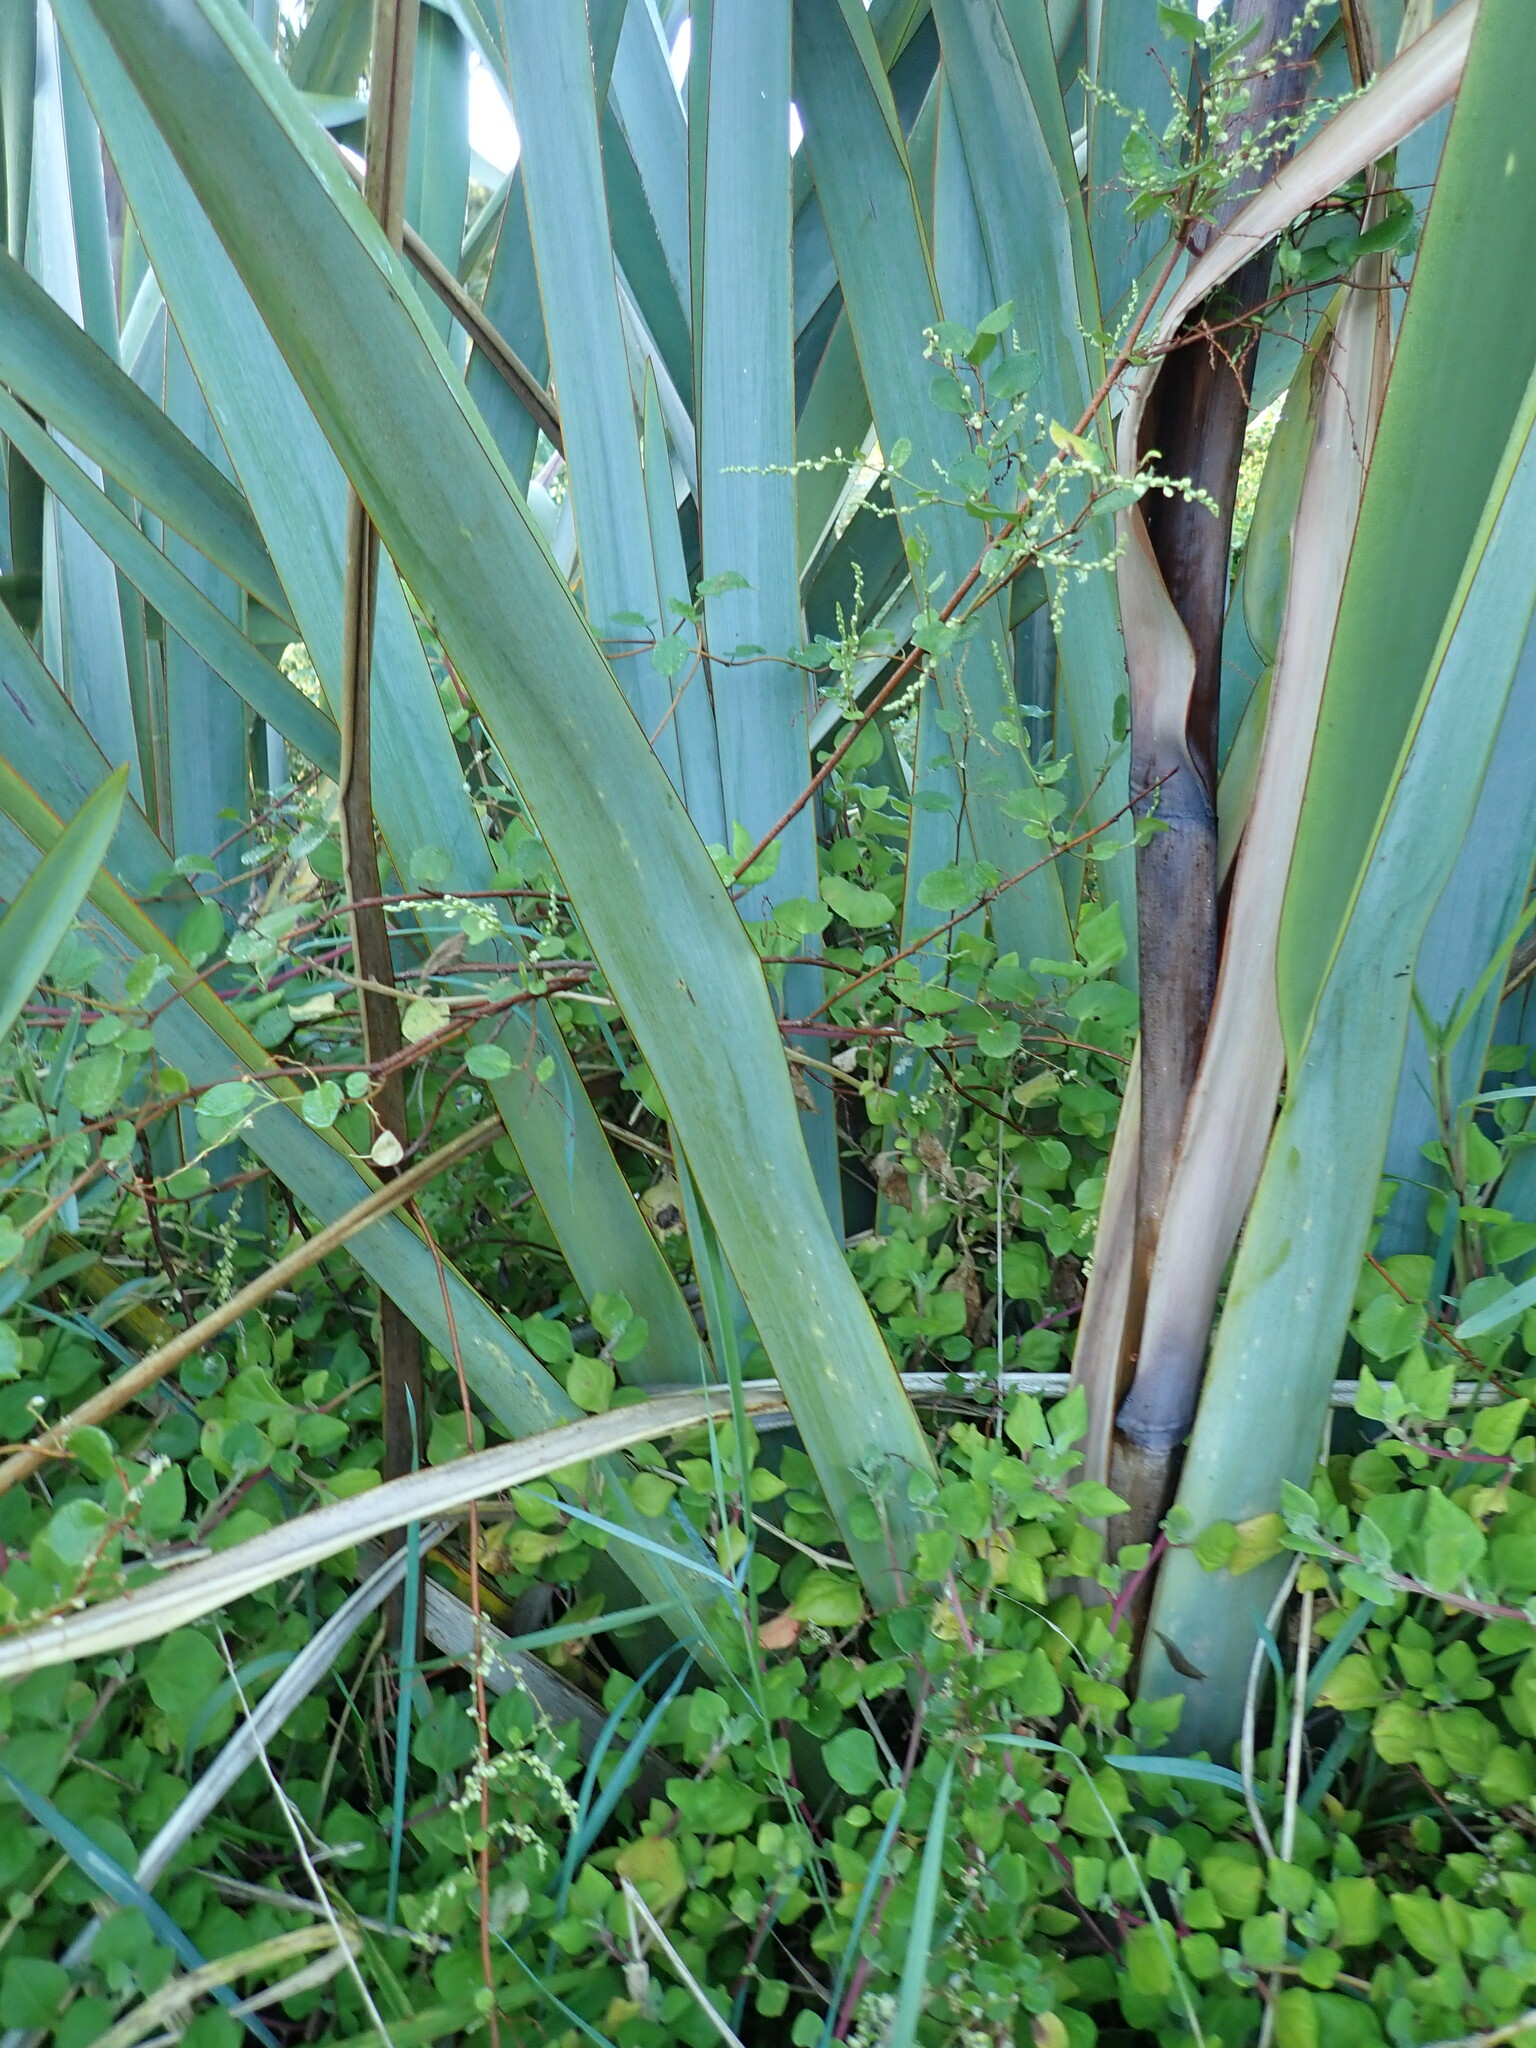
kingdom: Plantae
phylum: Tracheophyta
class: Magnoliopsida
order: Caryophyllales
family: Aizoaceae
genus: Tetragonia
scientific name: Tetragonia implexicoma
